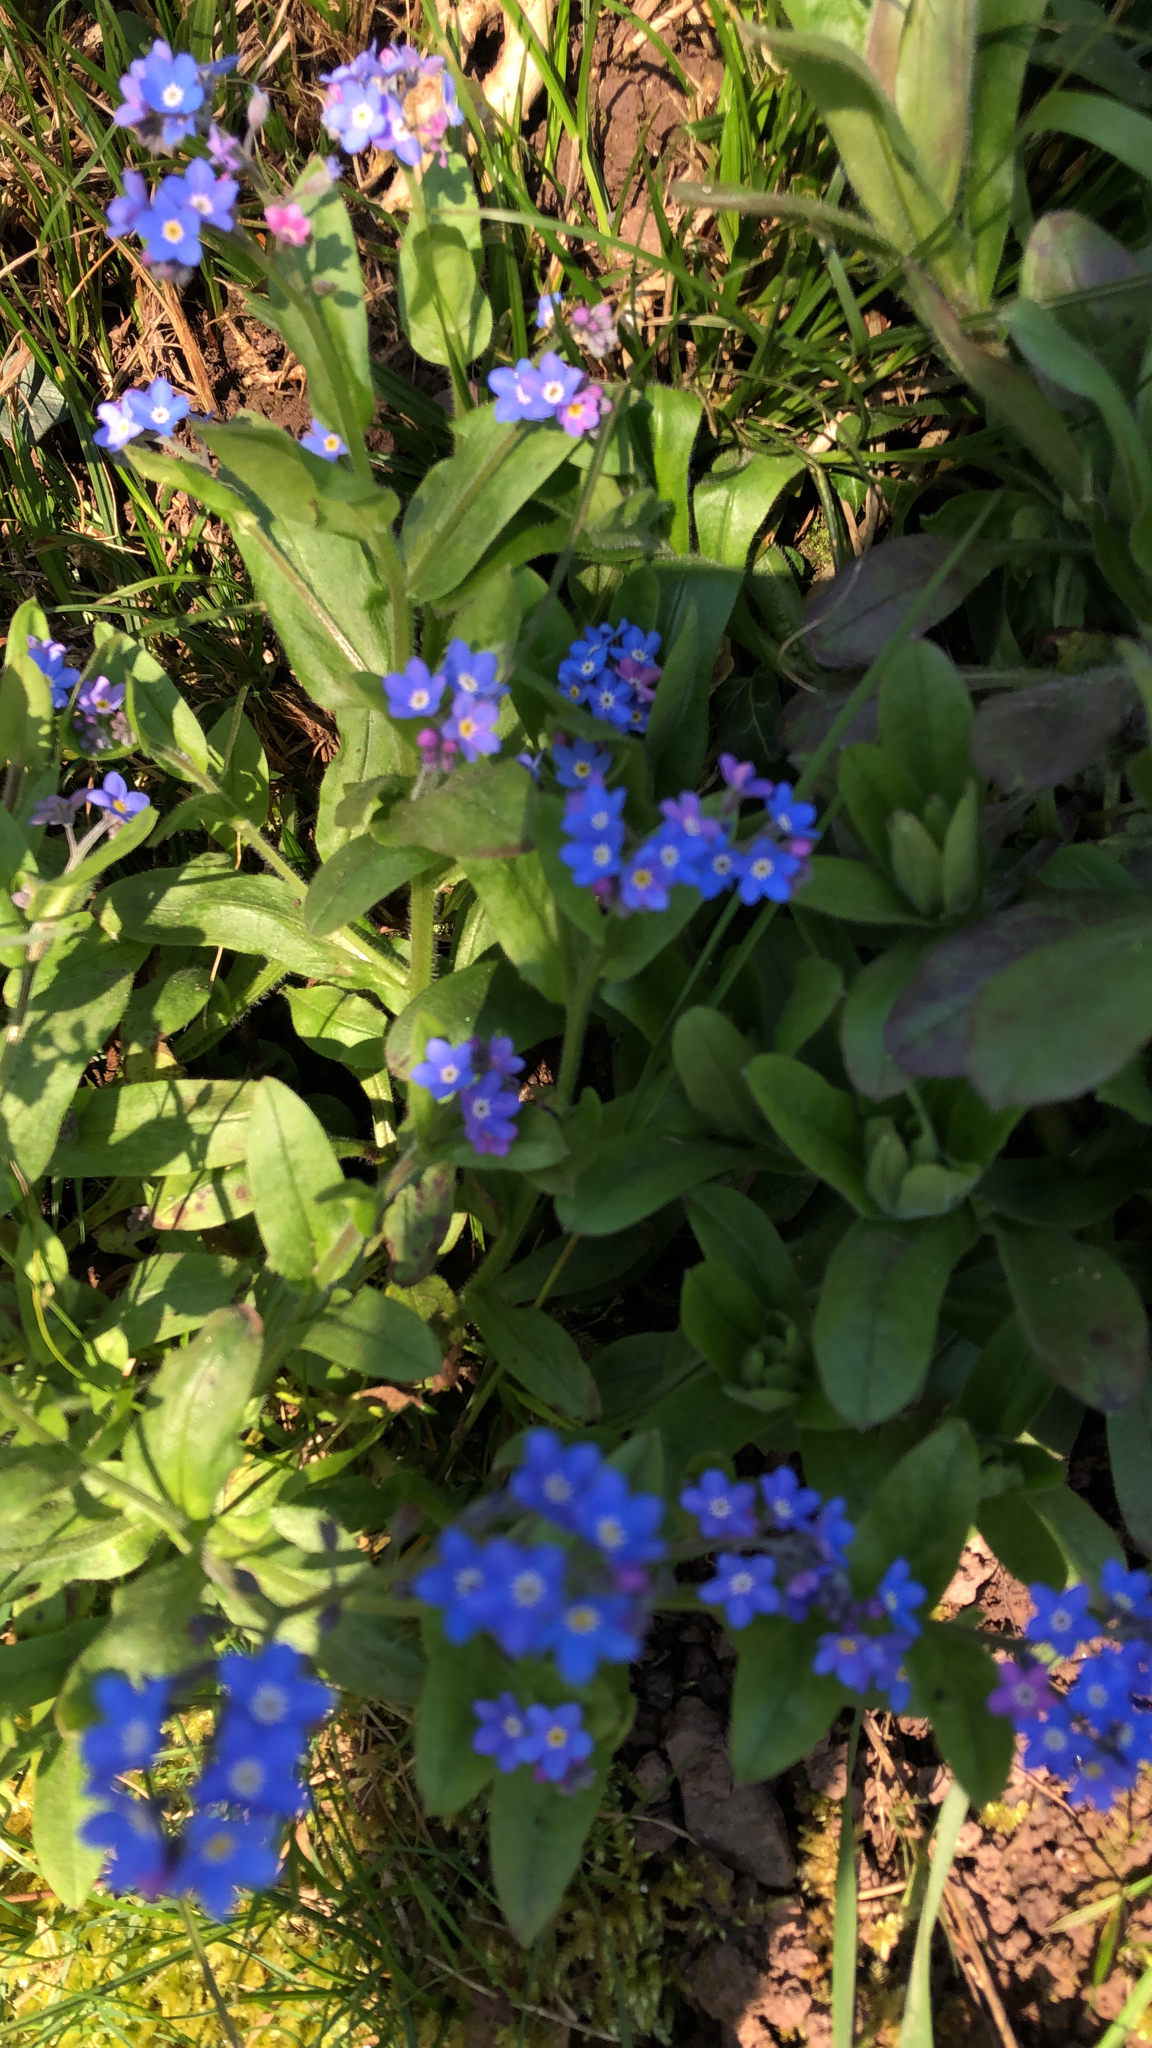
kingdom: Plantae
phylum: Tracheophyta
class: Magnoliopsida
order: Boraginales
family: Boraginaceae
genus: Myosotis
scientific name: Myosotis sylvatica
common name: Wood forget-me-not
